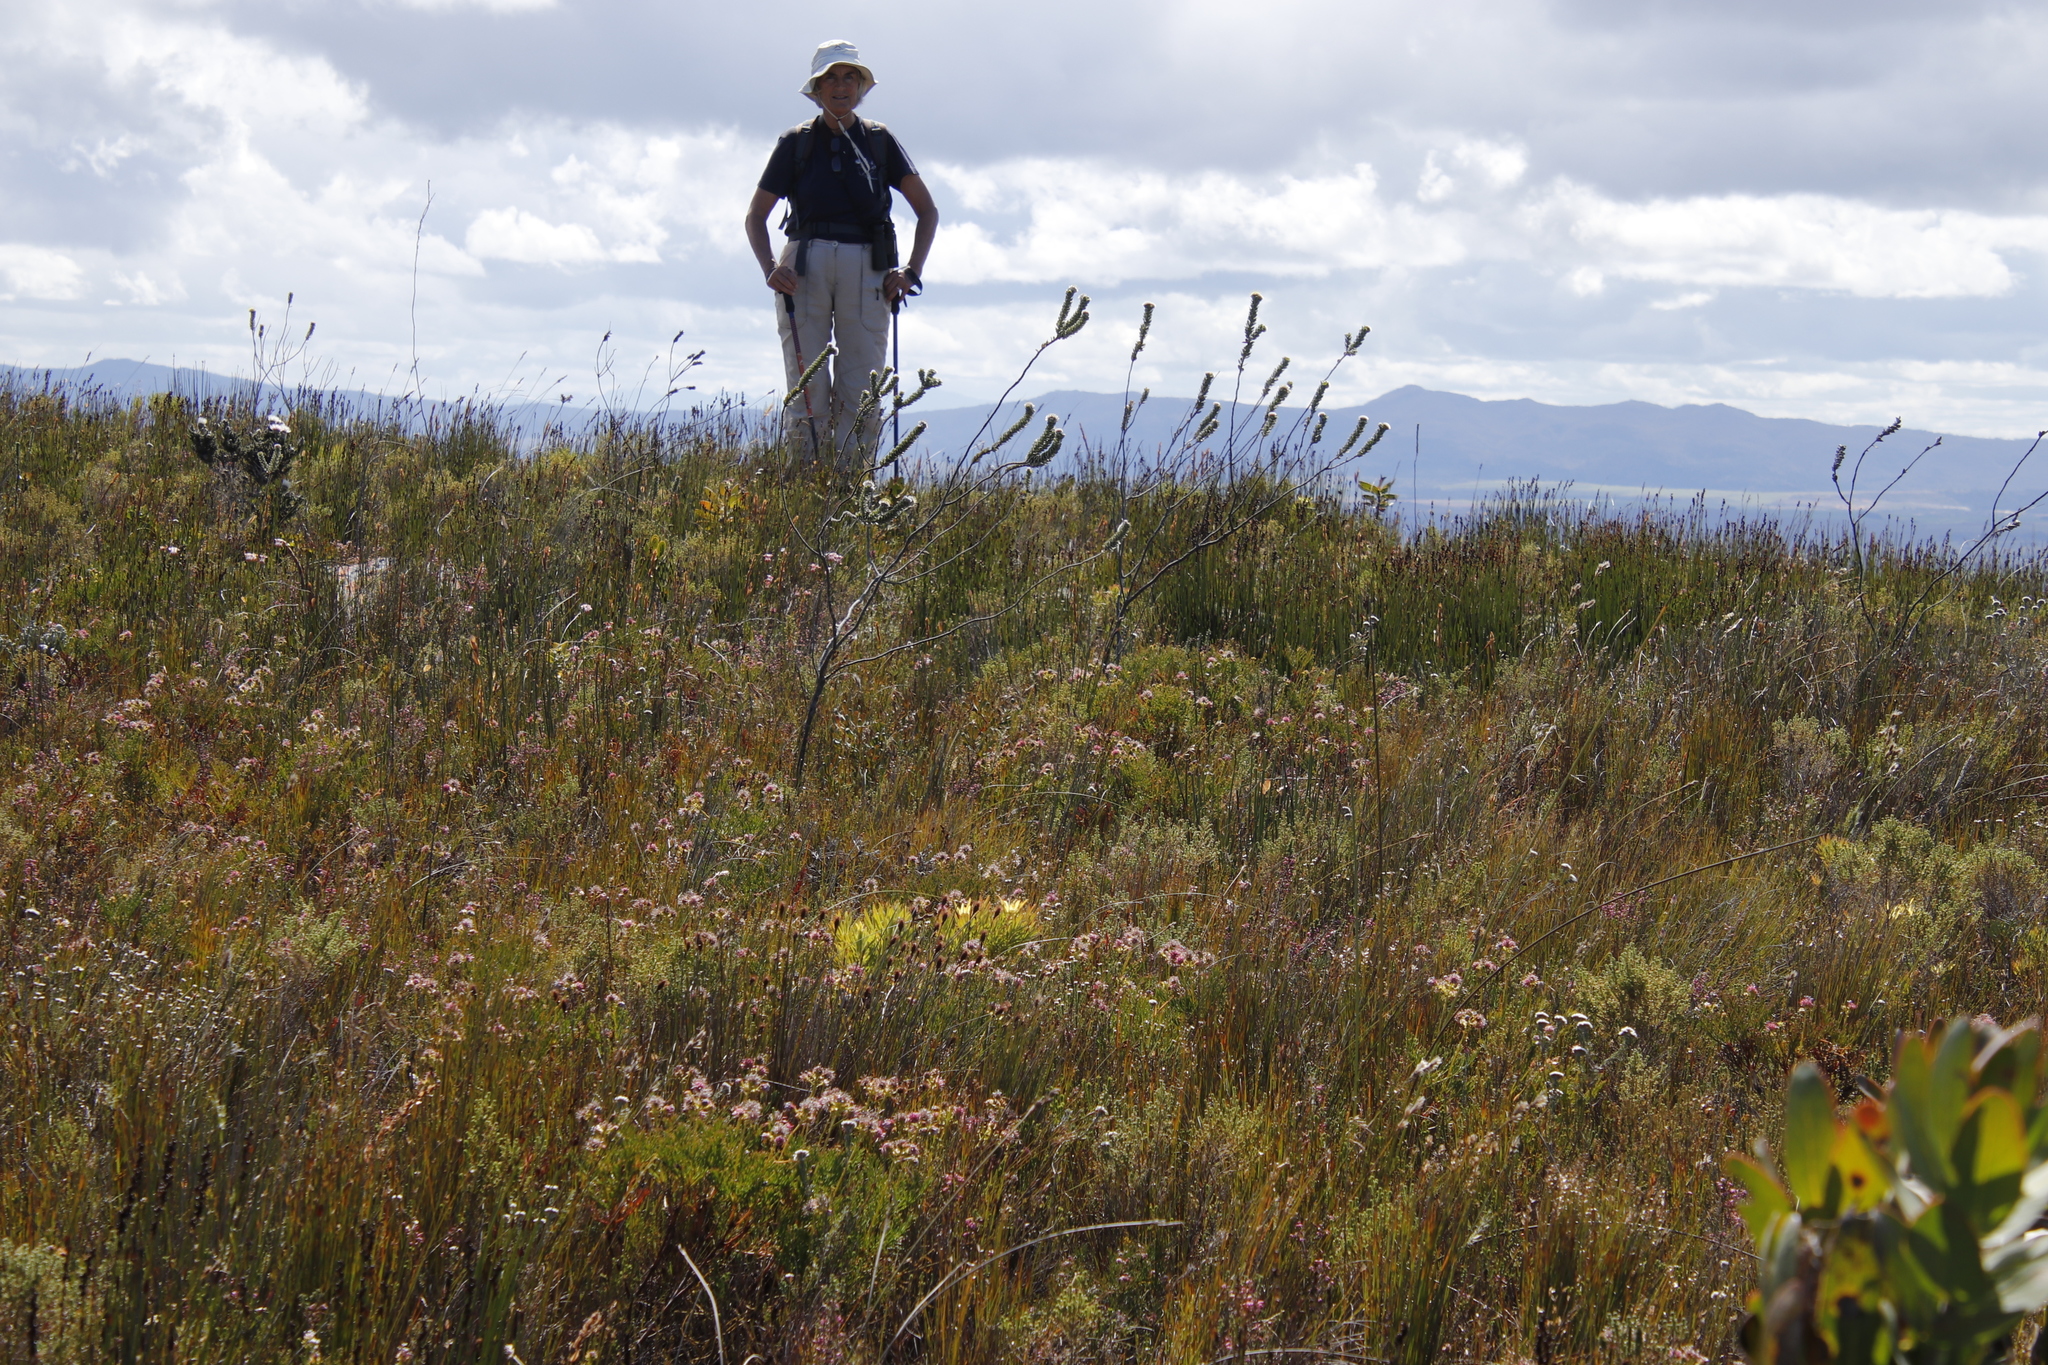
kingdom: Plantae
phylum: Tracheophyta
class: Magnoliopsida
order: Proteales
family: Proteaceae
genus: Serruria
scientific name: Serruria elongata
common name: Long-stalk spiderhead
